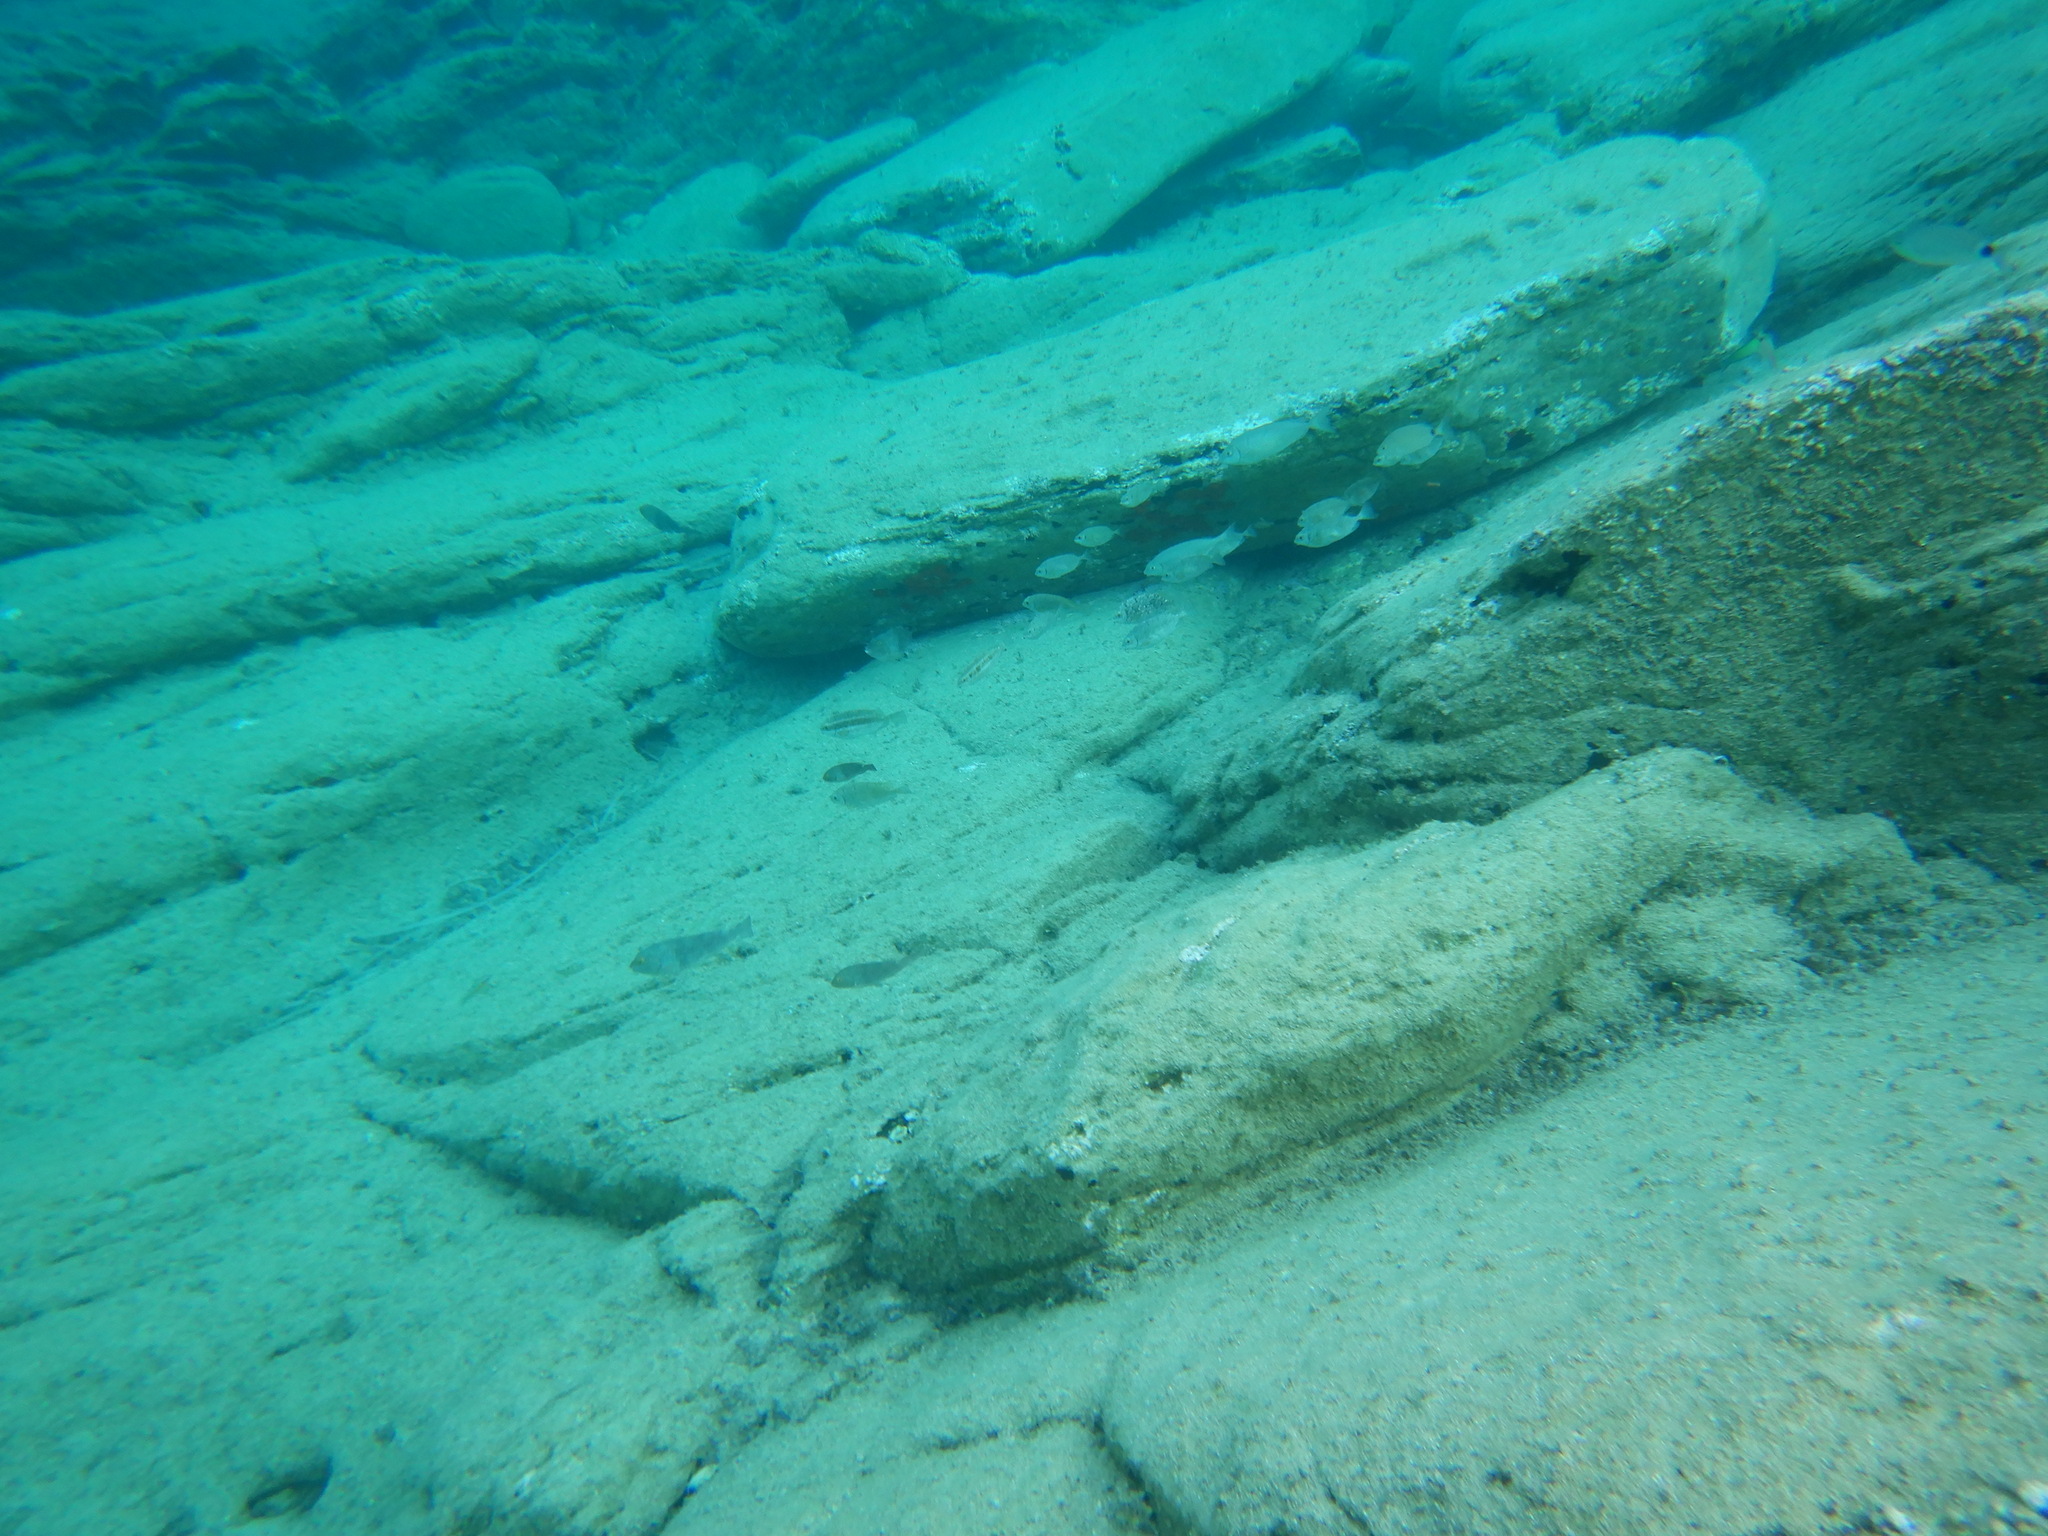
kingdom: Animalia
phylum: Chordata
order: Perciformes
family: Siganidae
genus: Siganus
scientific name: Siganus
